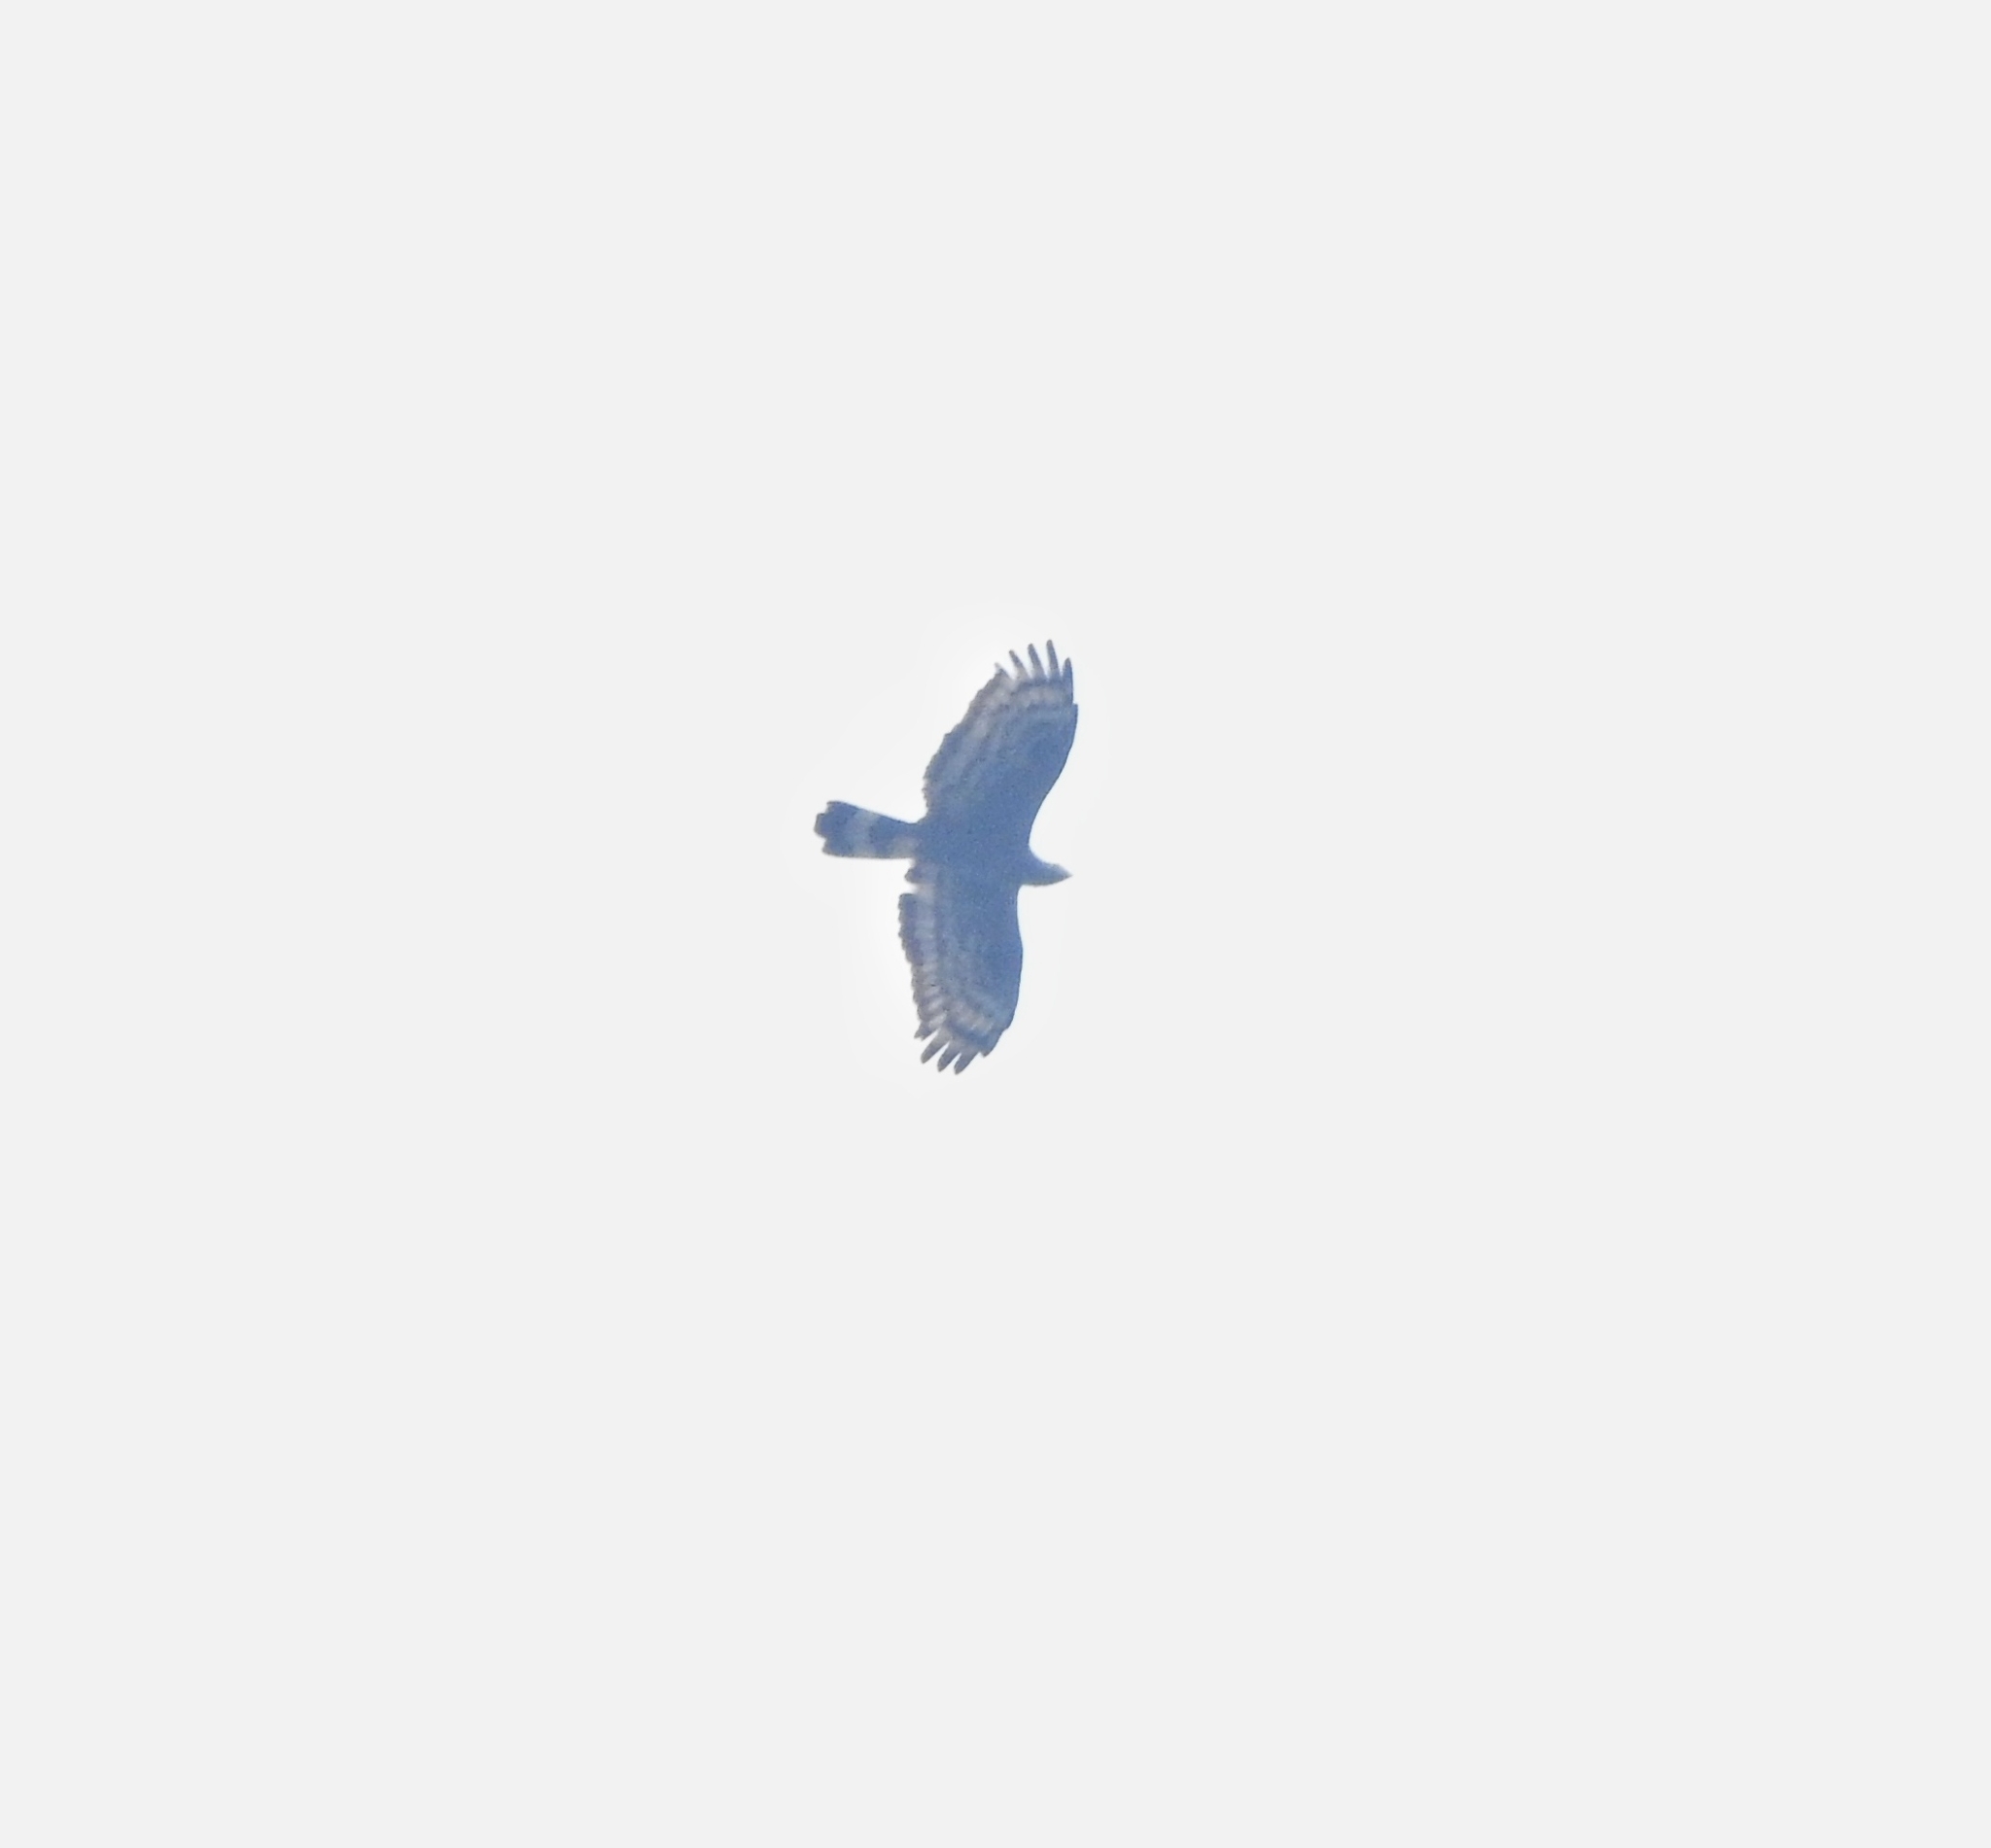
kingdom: Animalia
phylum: Chordata
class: Aves
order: Accipitriformes
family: Accipitridae
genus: Pernis
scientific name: Pernis ptilorhynchus
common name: Crested honey buzzard
